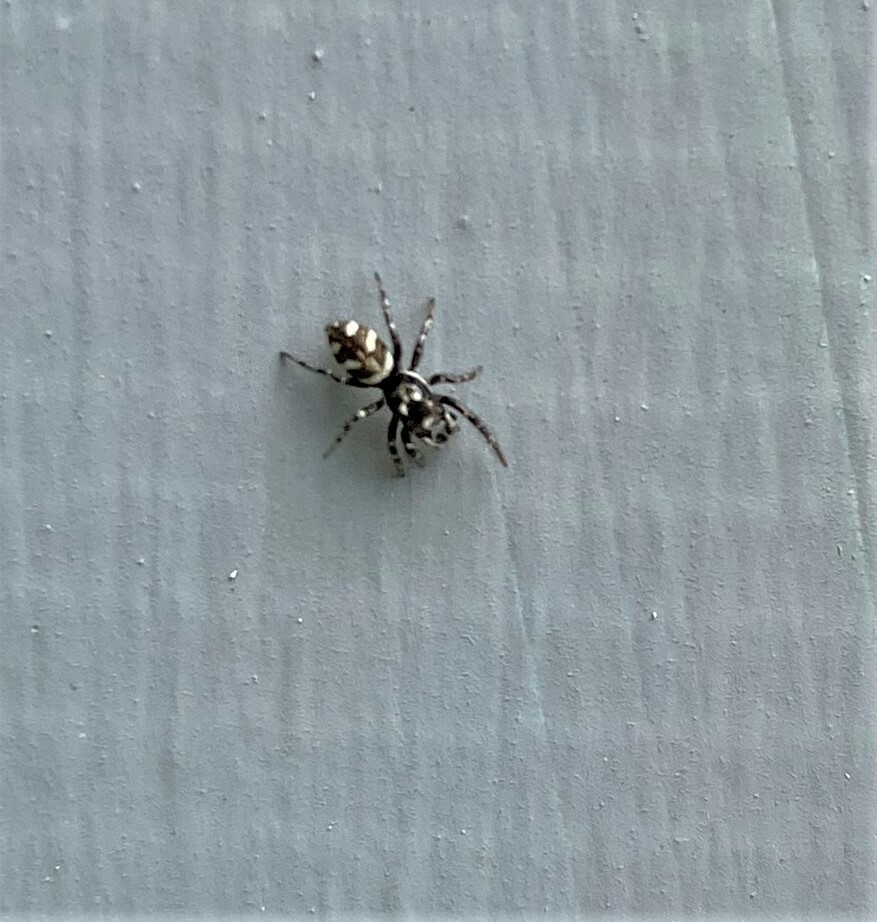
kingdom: Animalia
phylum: Arthropoda
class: Arachnida
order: Araneae
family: Salticidae
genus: Salticus
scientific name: Salticus scenicus
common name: Zebra jumper
